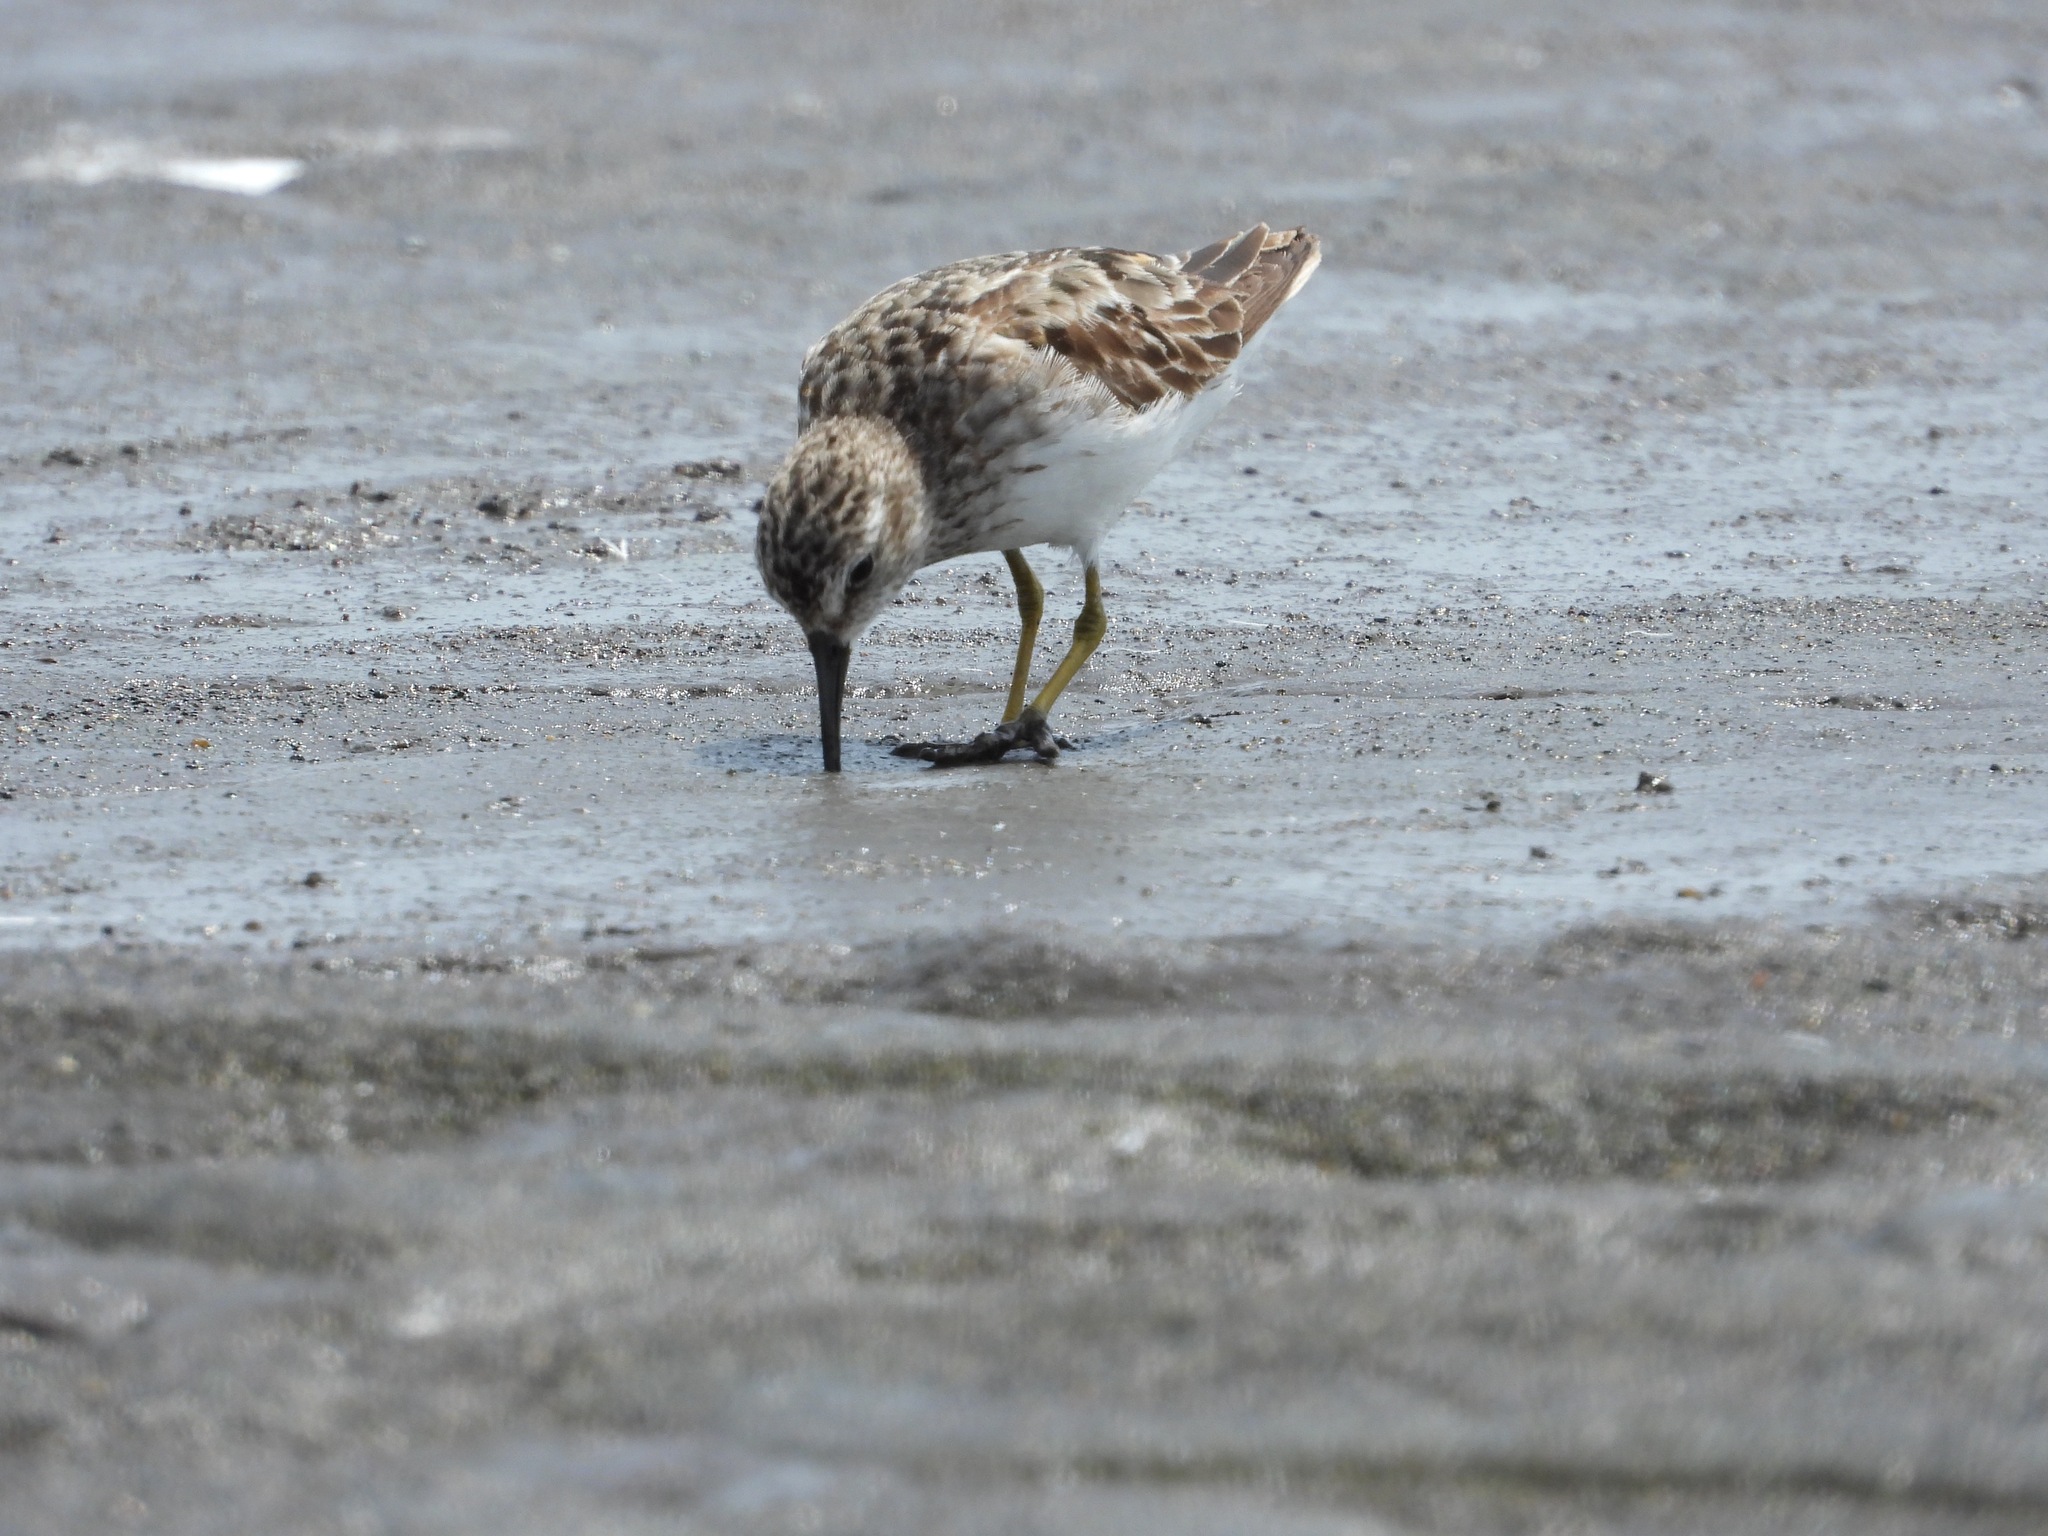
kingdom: Animalia
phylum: Chordata
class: Aves
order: Charadriiformes
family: Scolopacidae
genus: Calidris
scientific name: Calidris minutilla
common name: Least sandpiper
